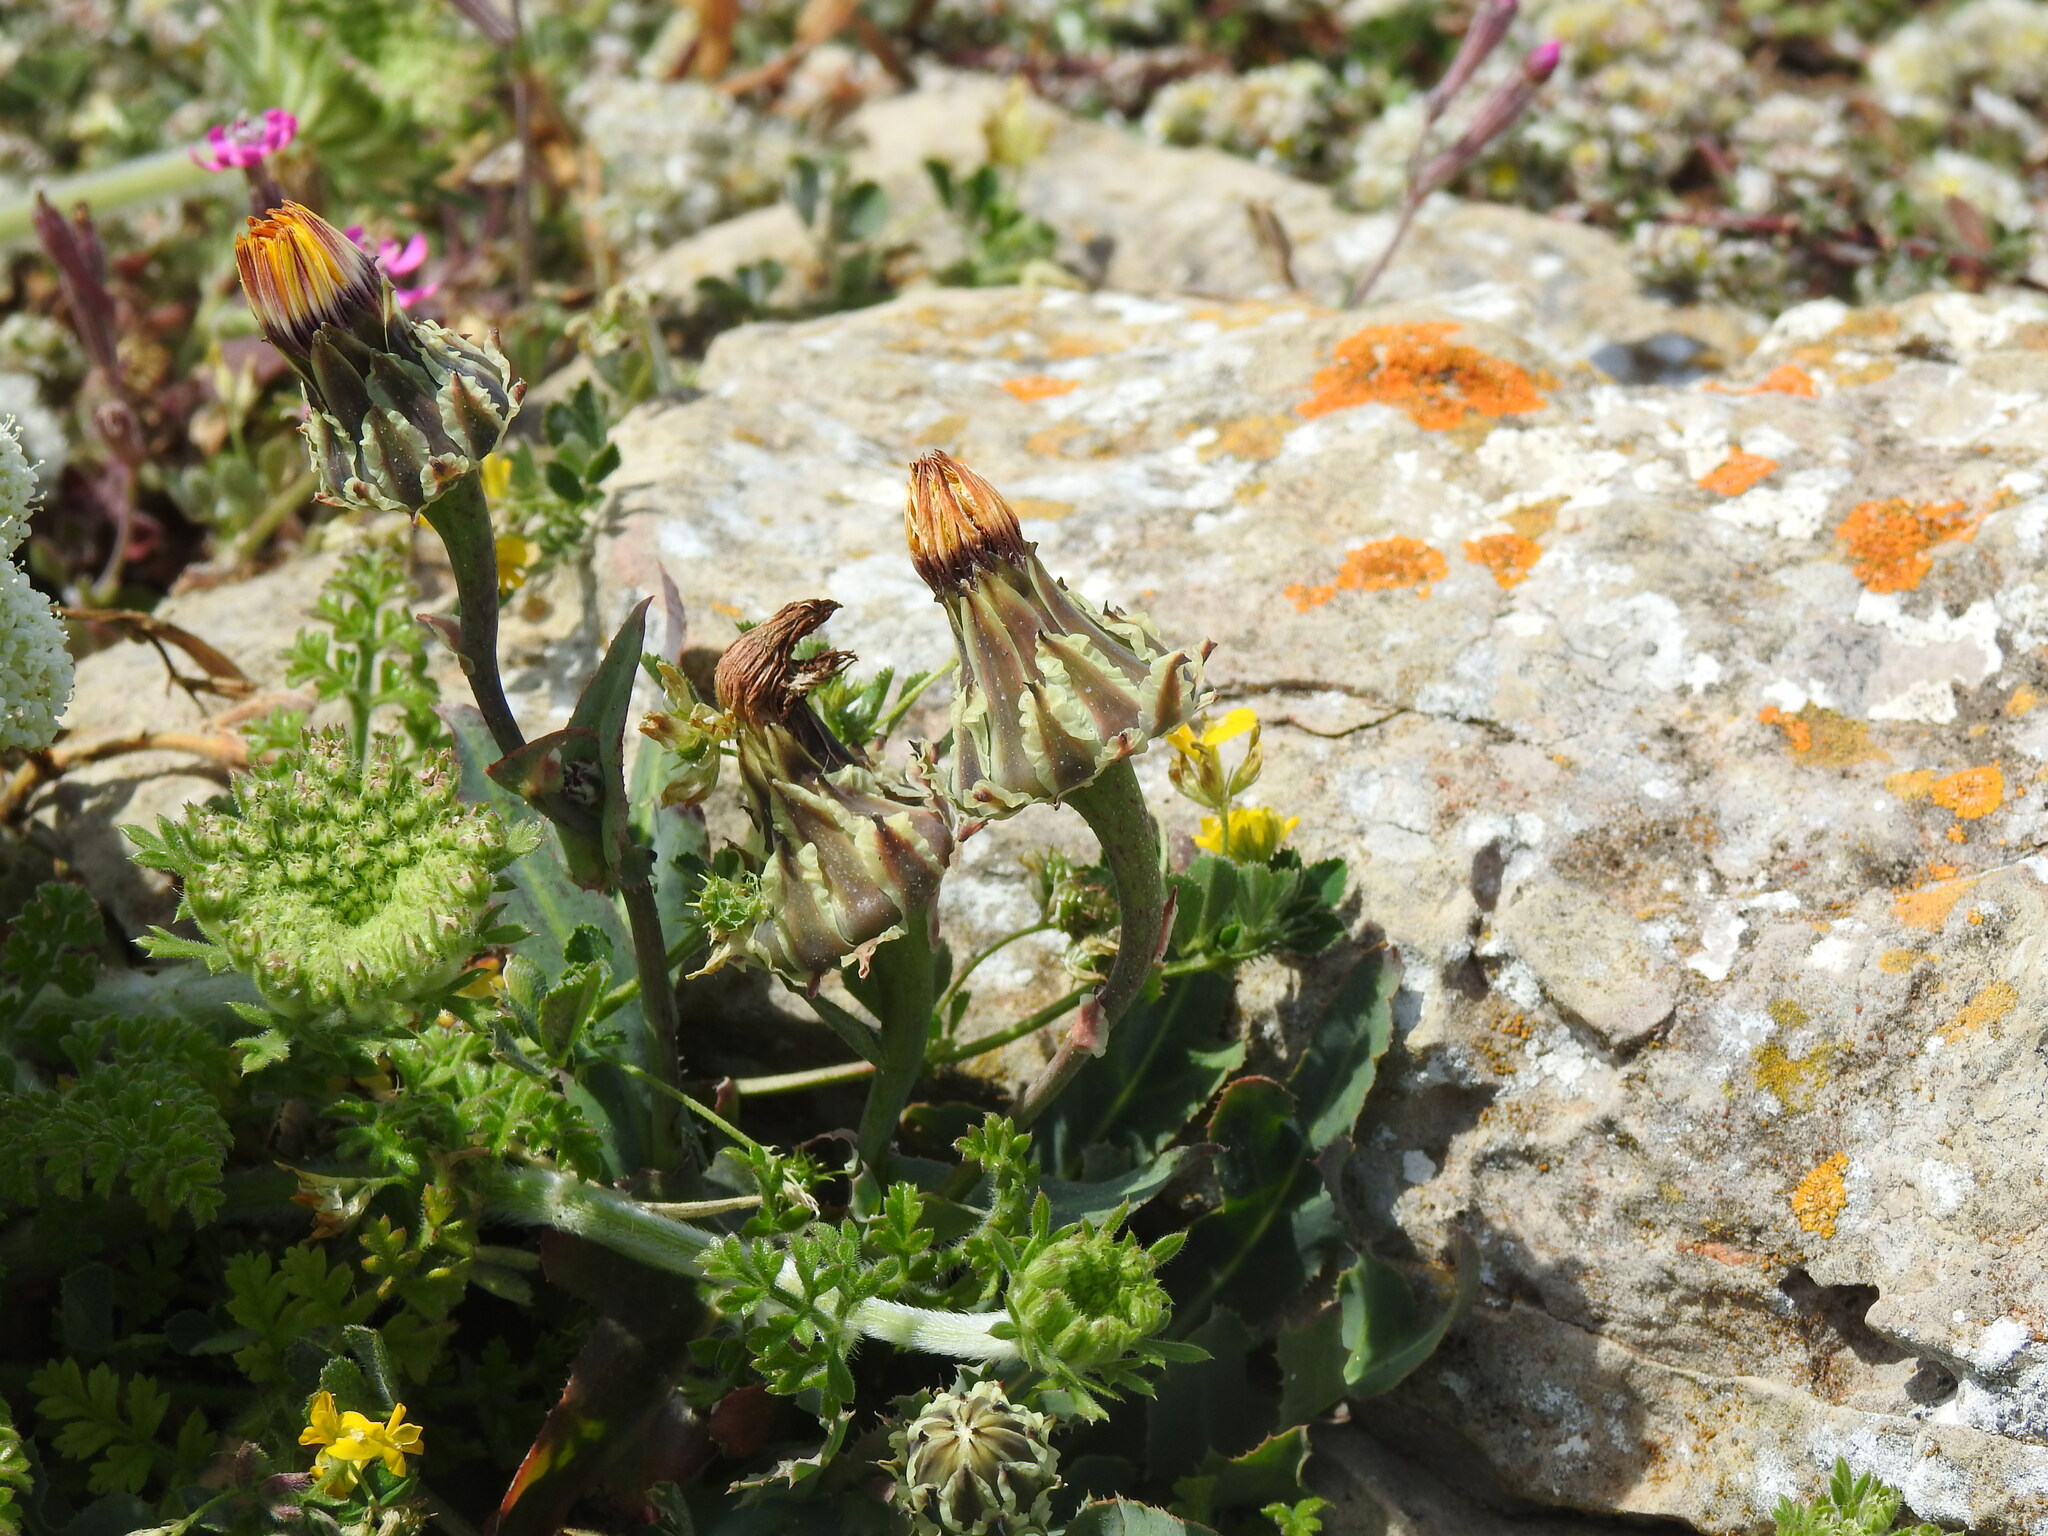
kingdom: Plantae
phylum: Tracheophyta
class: Magnoliopsida
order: Asterales
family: Asteraceae
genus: Reichardia
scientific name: Reichardia gaditana
